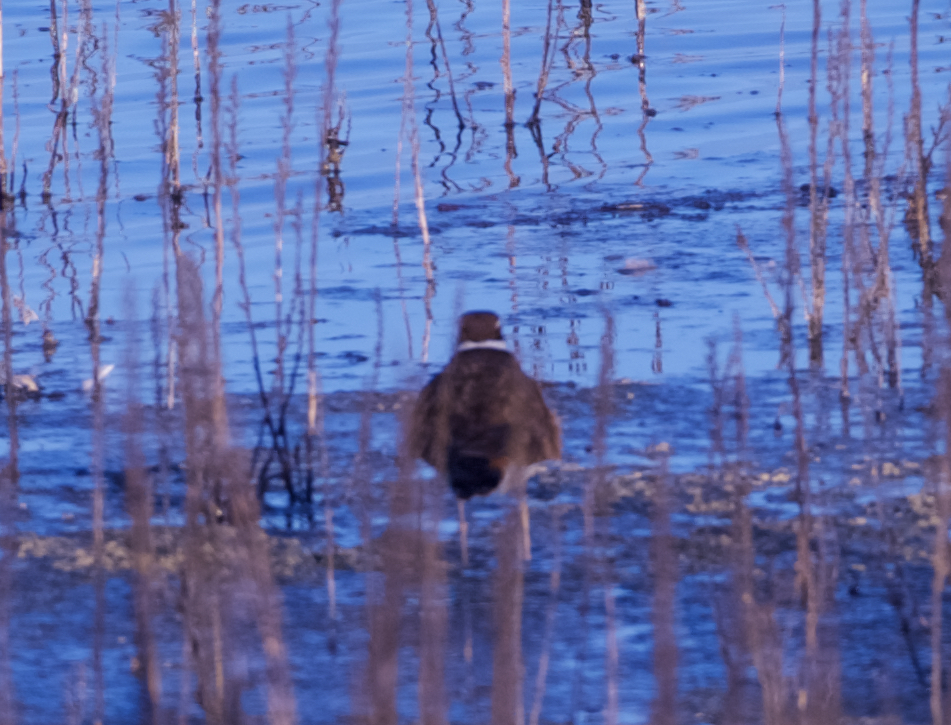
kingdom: Animalia
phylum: Chordata
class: Aves
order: Charadriiformes
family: Charadriidae
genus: Charadrius
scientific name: Charadrius vociferus
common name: Killdeer
